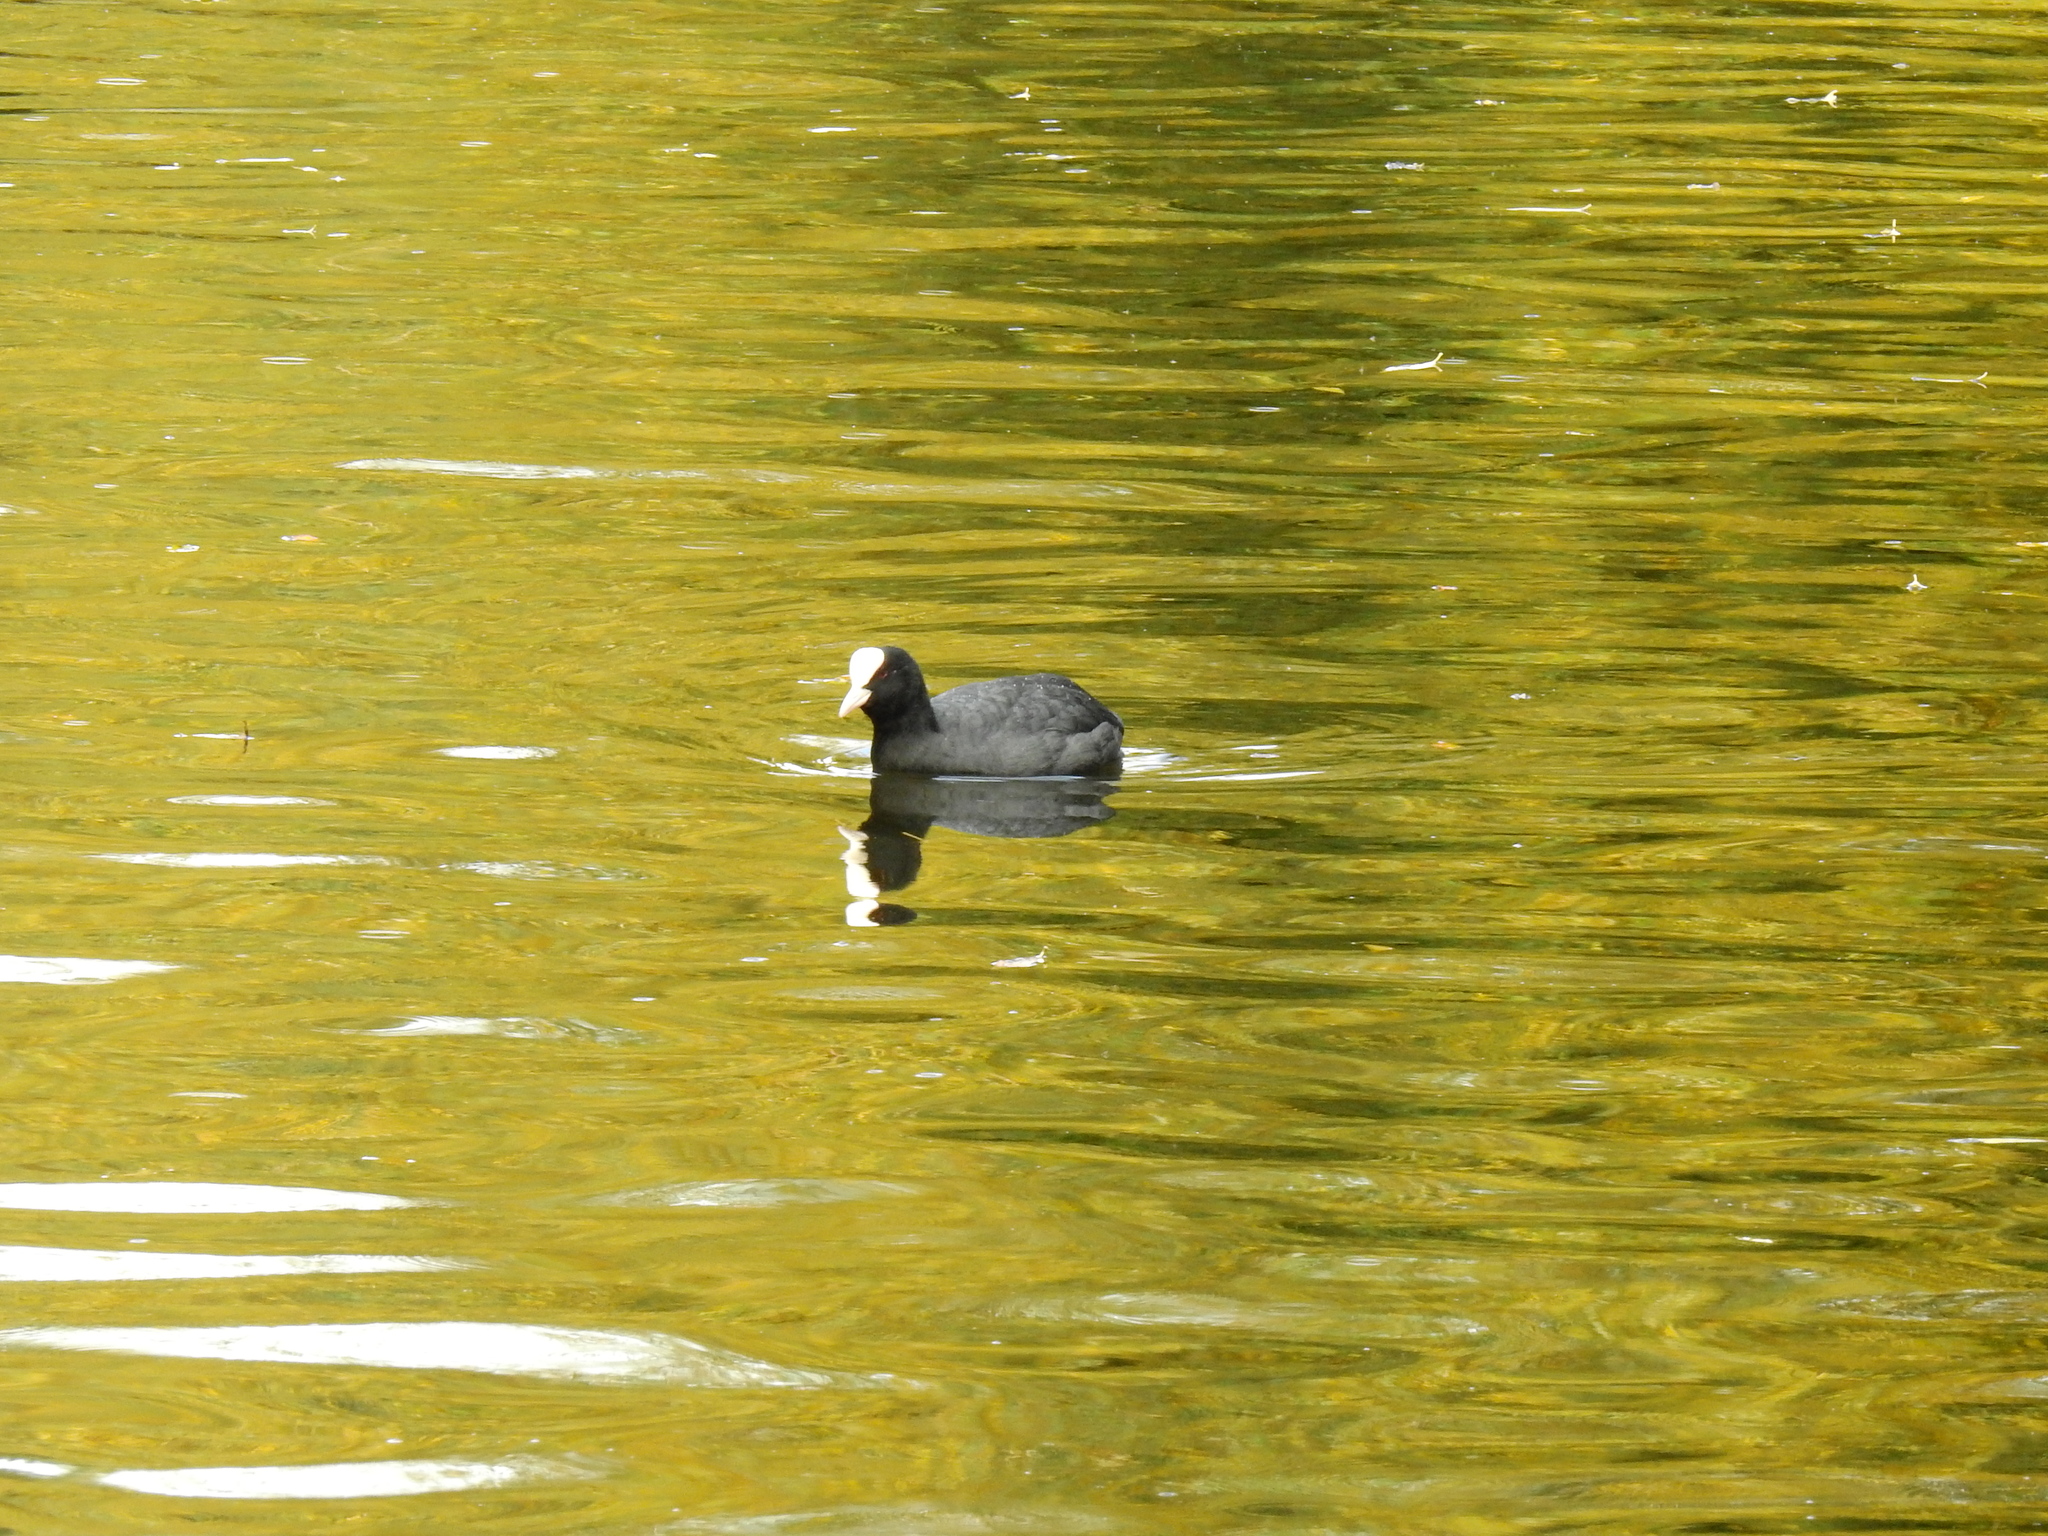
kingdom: Animalia
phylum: Chordata
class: Aves
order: Gruiformes
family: Rallidae
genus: Fulica
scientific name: Fulica atra
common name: Eurasian coot
